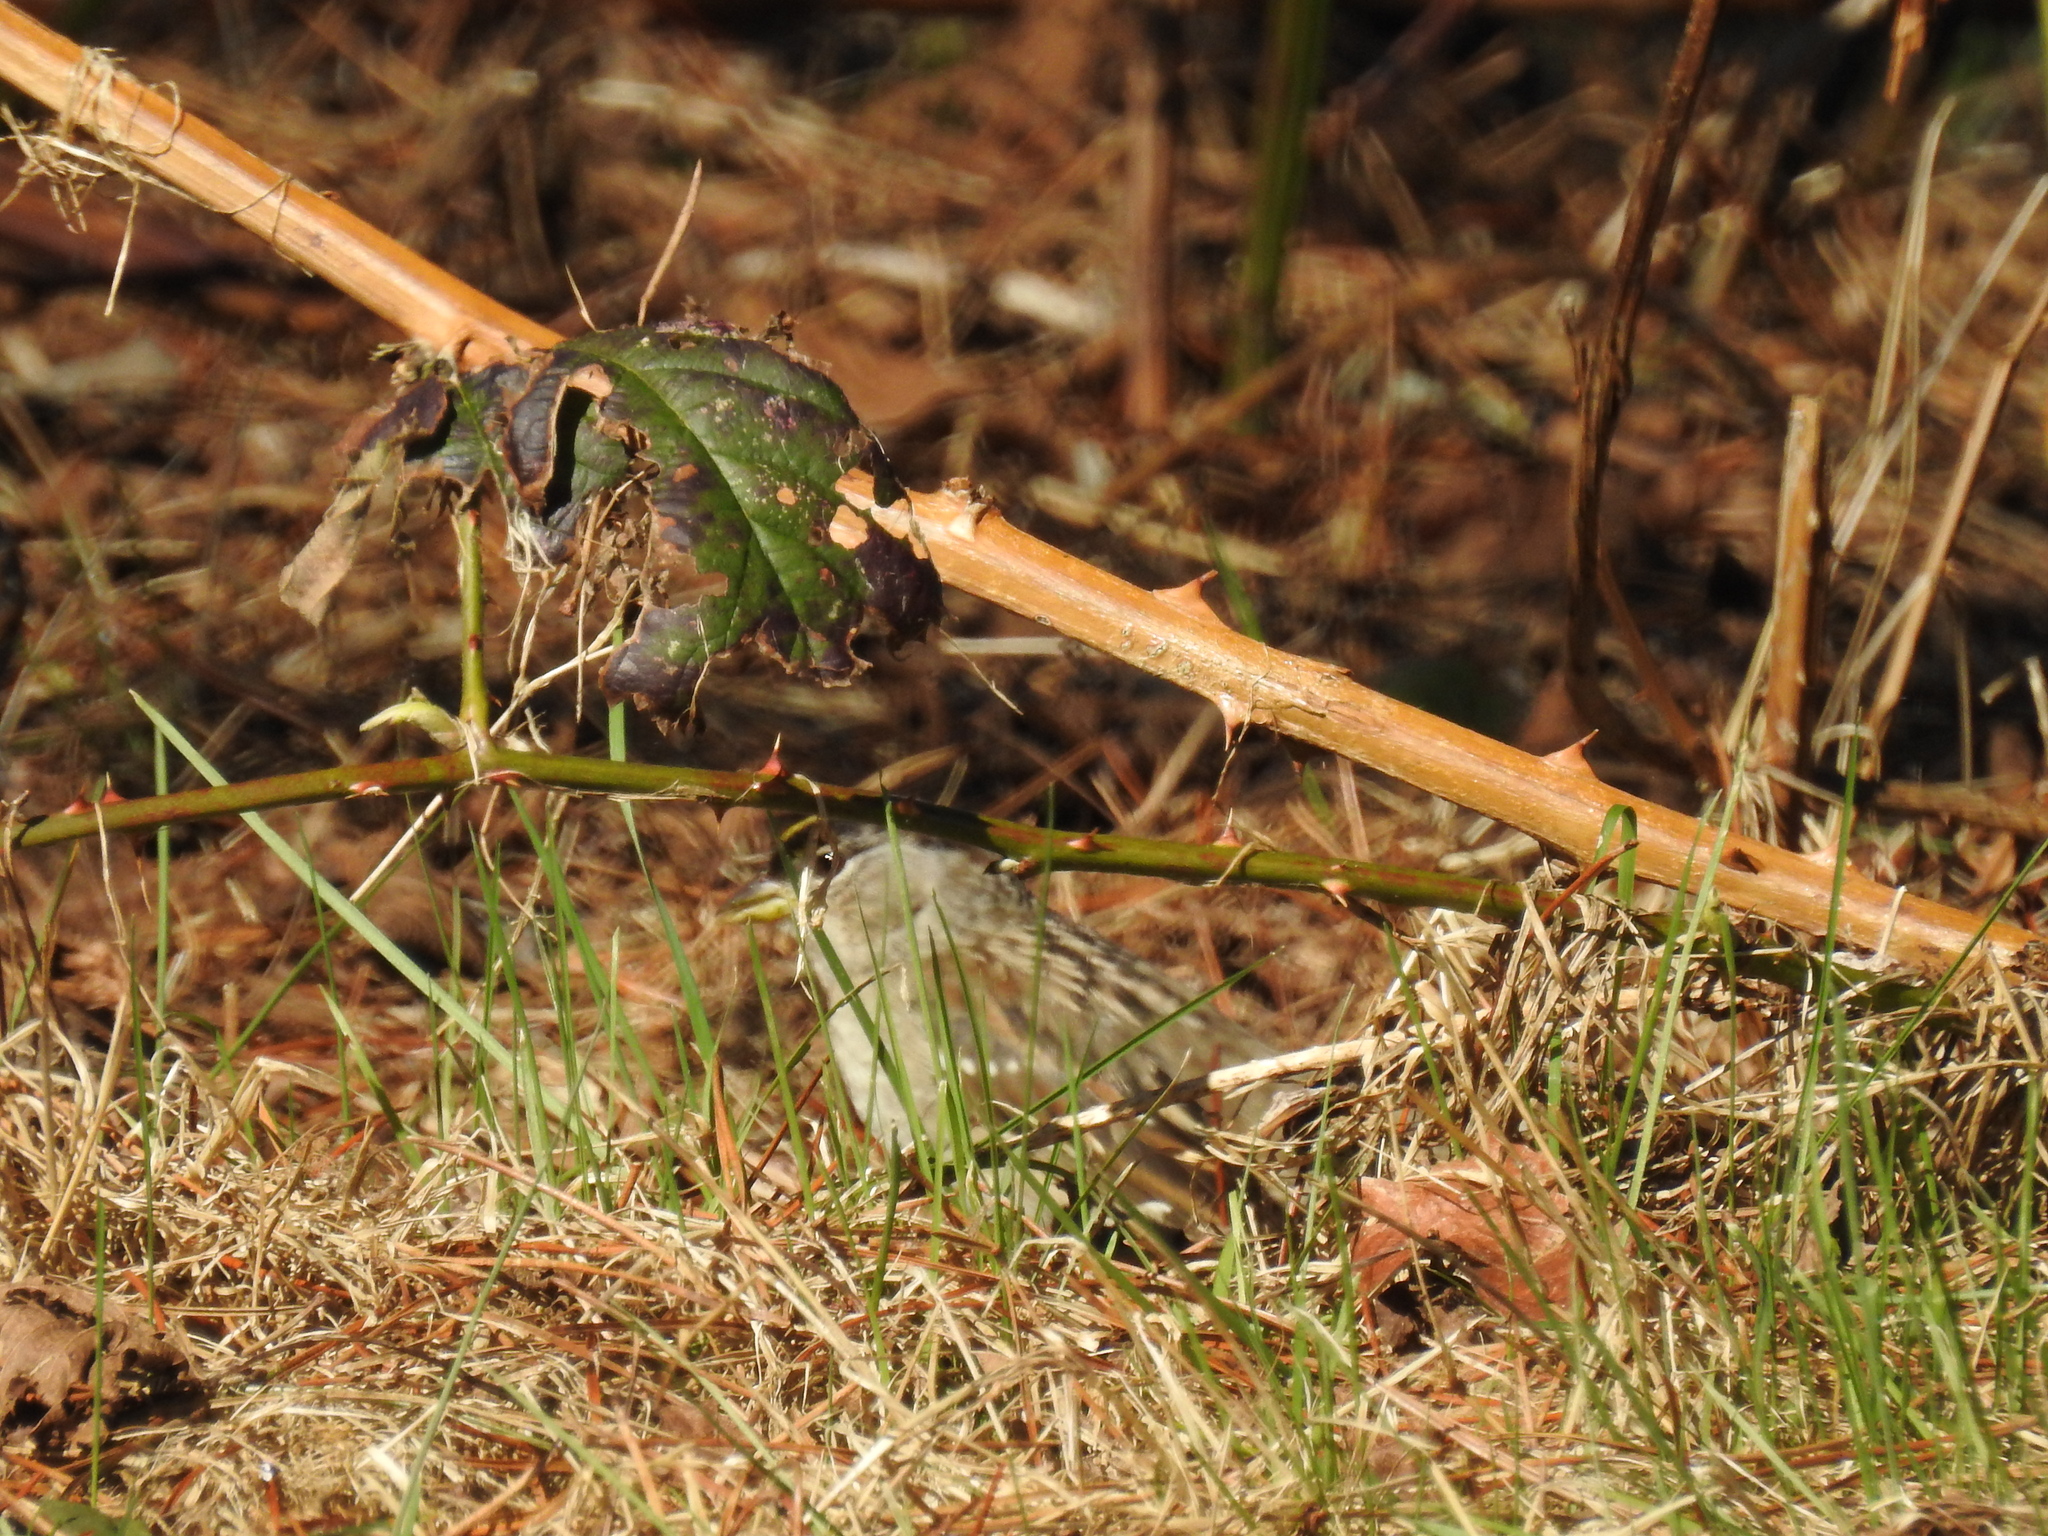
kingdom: Animalia
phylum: Chordata
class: Aves
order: Passeriformes
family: Passerellidae
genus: Zonotrichia
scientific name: Zonotrichia atricapilla
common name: Golden-crowned sparrow
